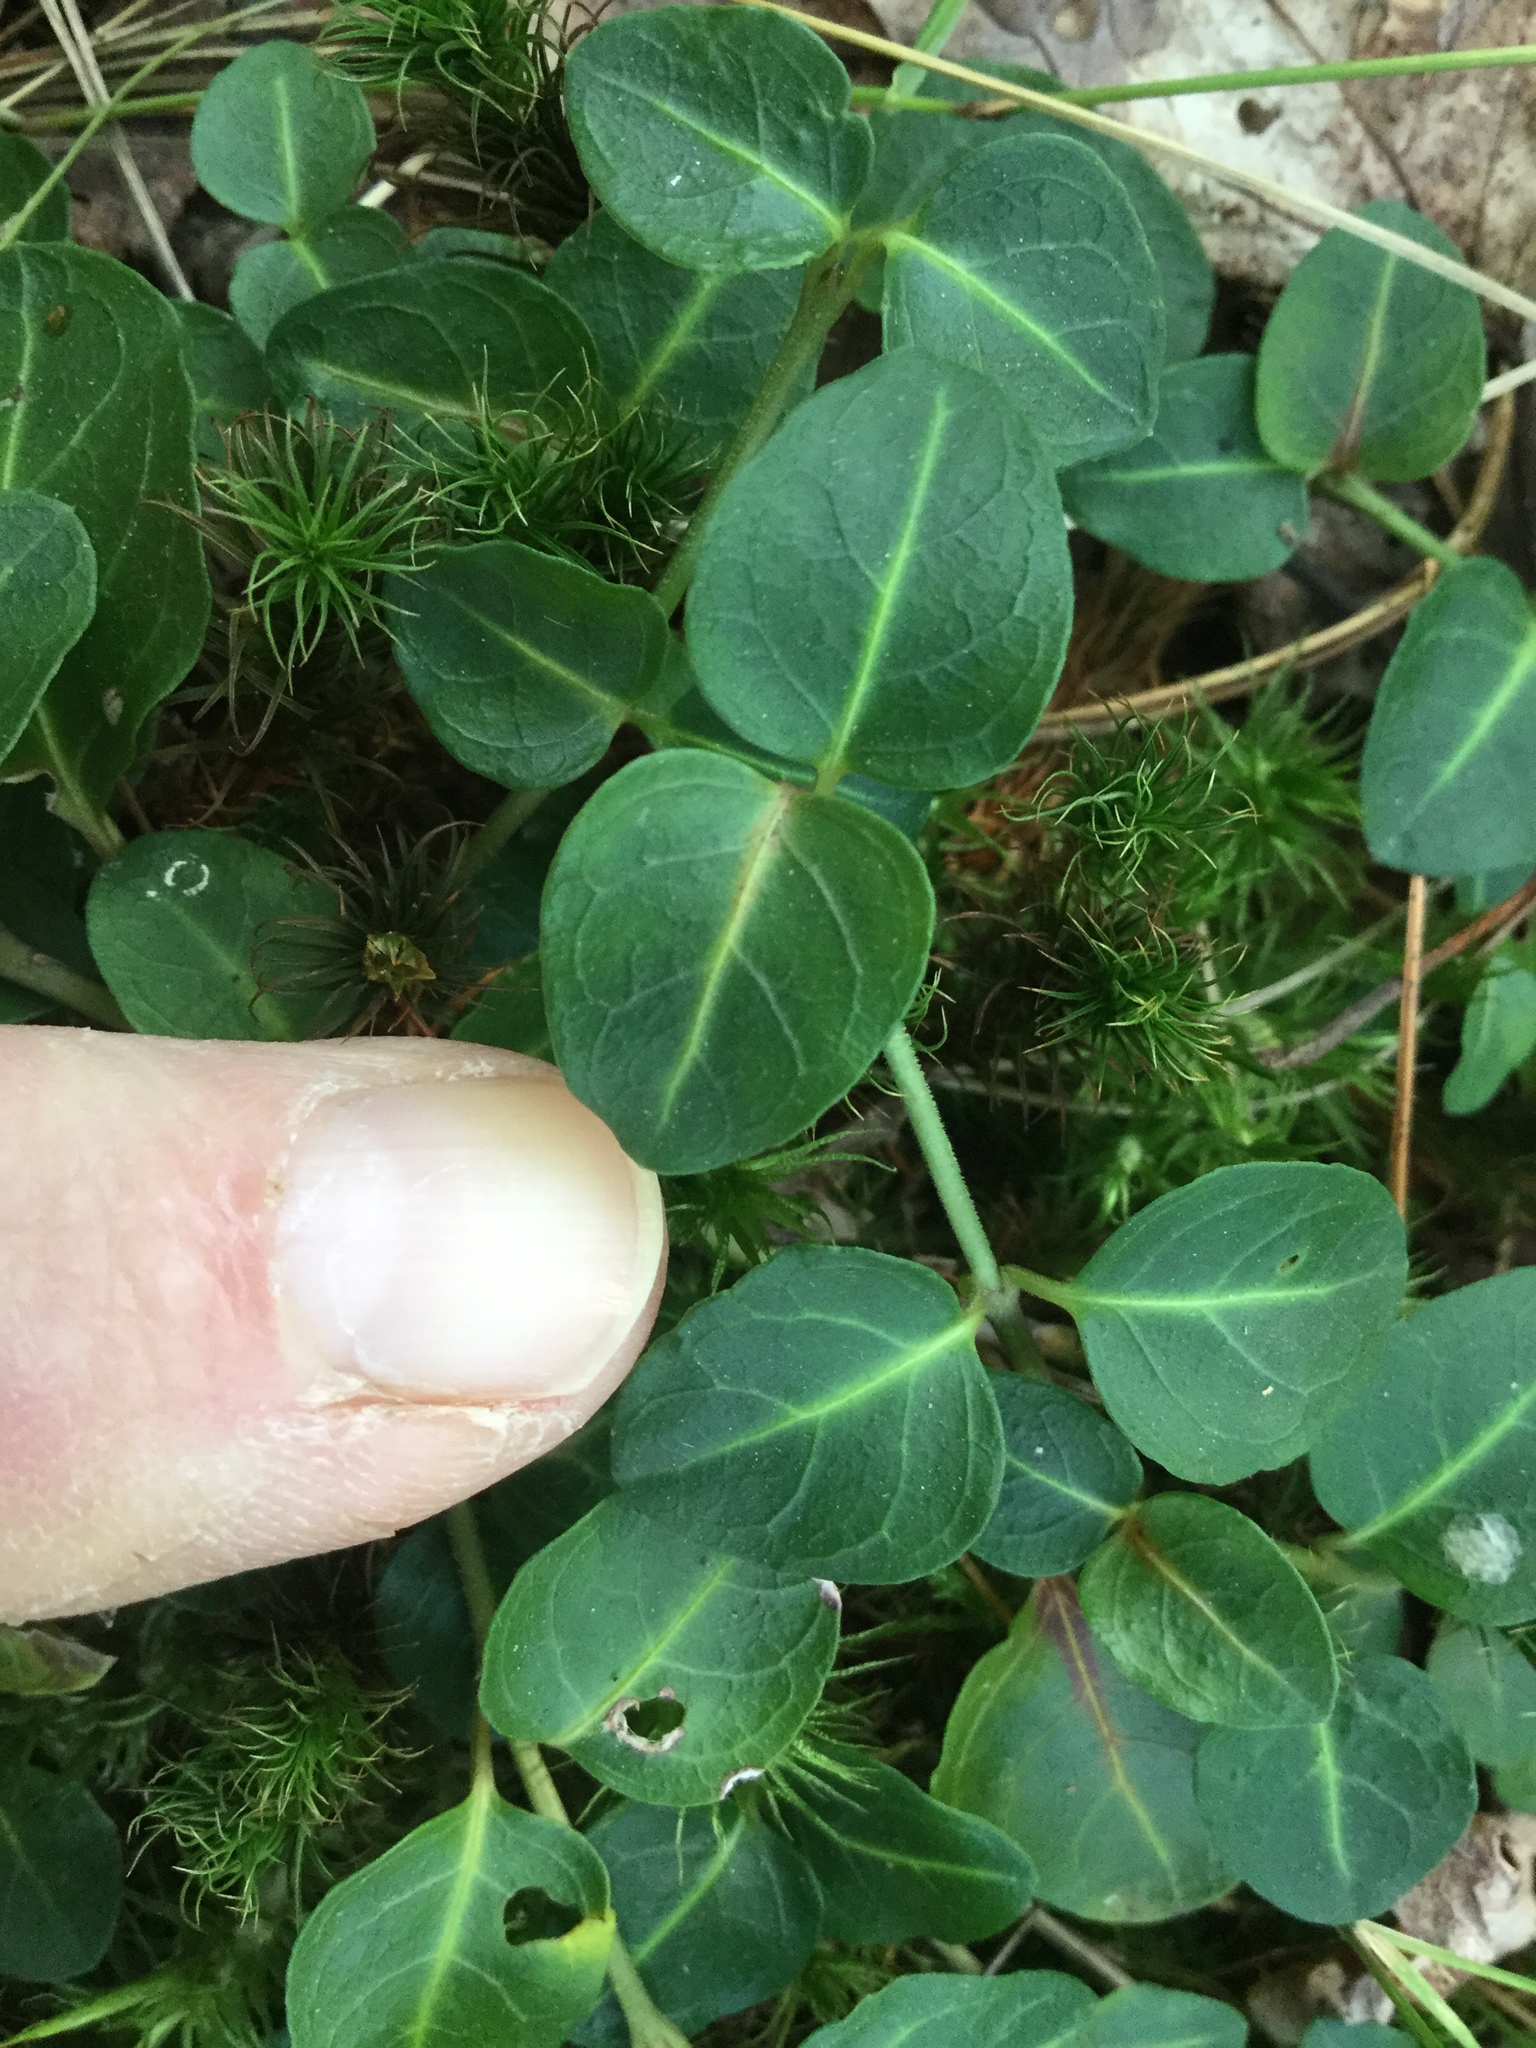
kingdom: Plantae
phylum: Tracheophyta
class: Magnoliopsida
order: Gentianales
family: Rubiaceae
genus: Mitchella
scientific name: Mitchella repens
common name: Partridge-berry
